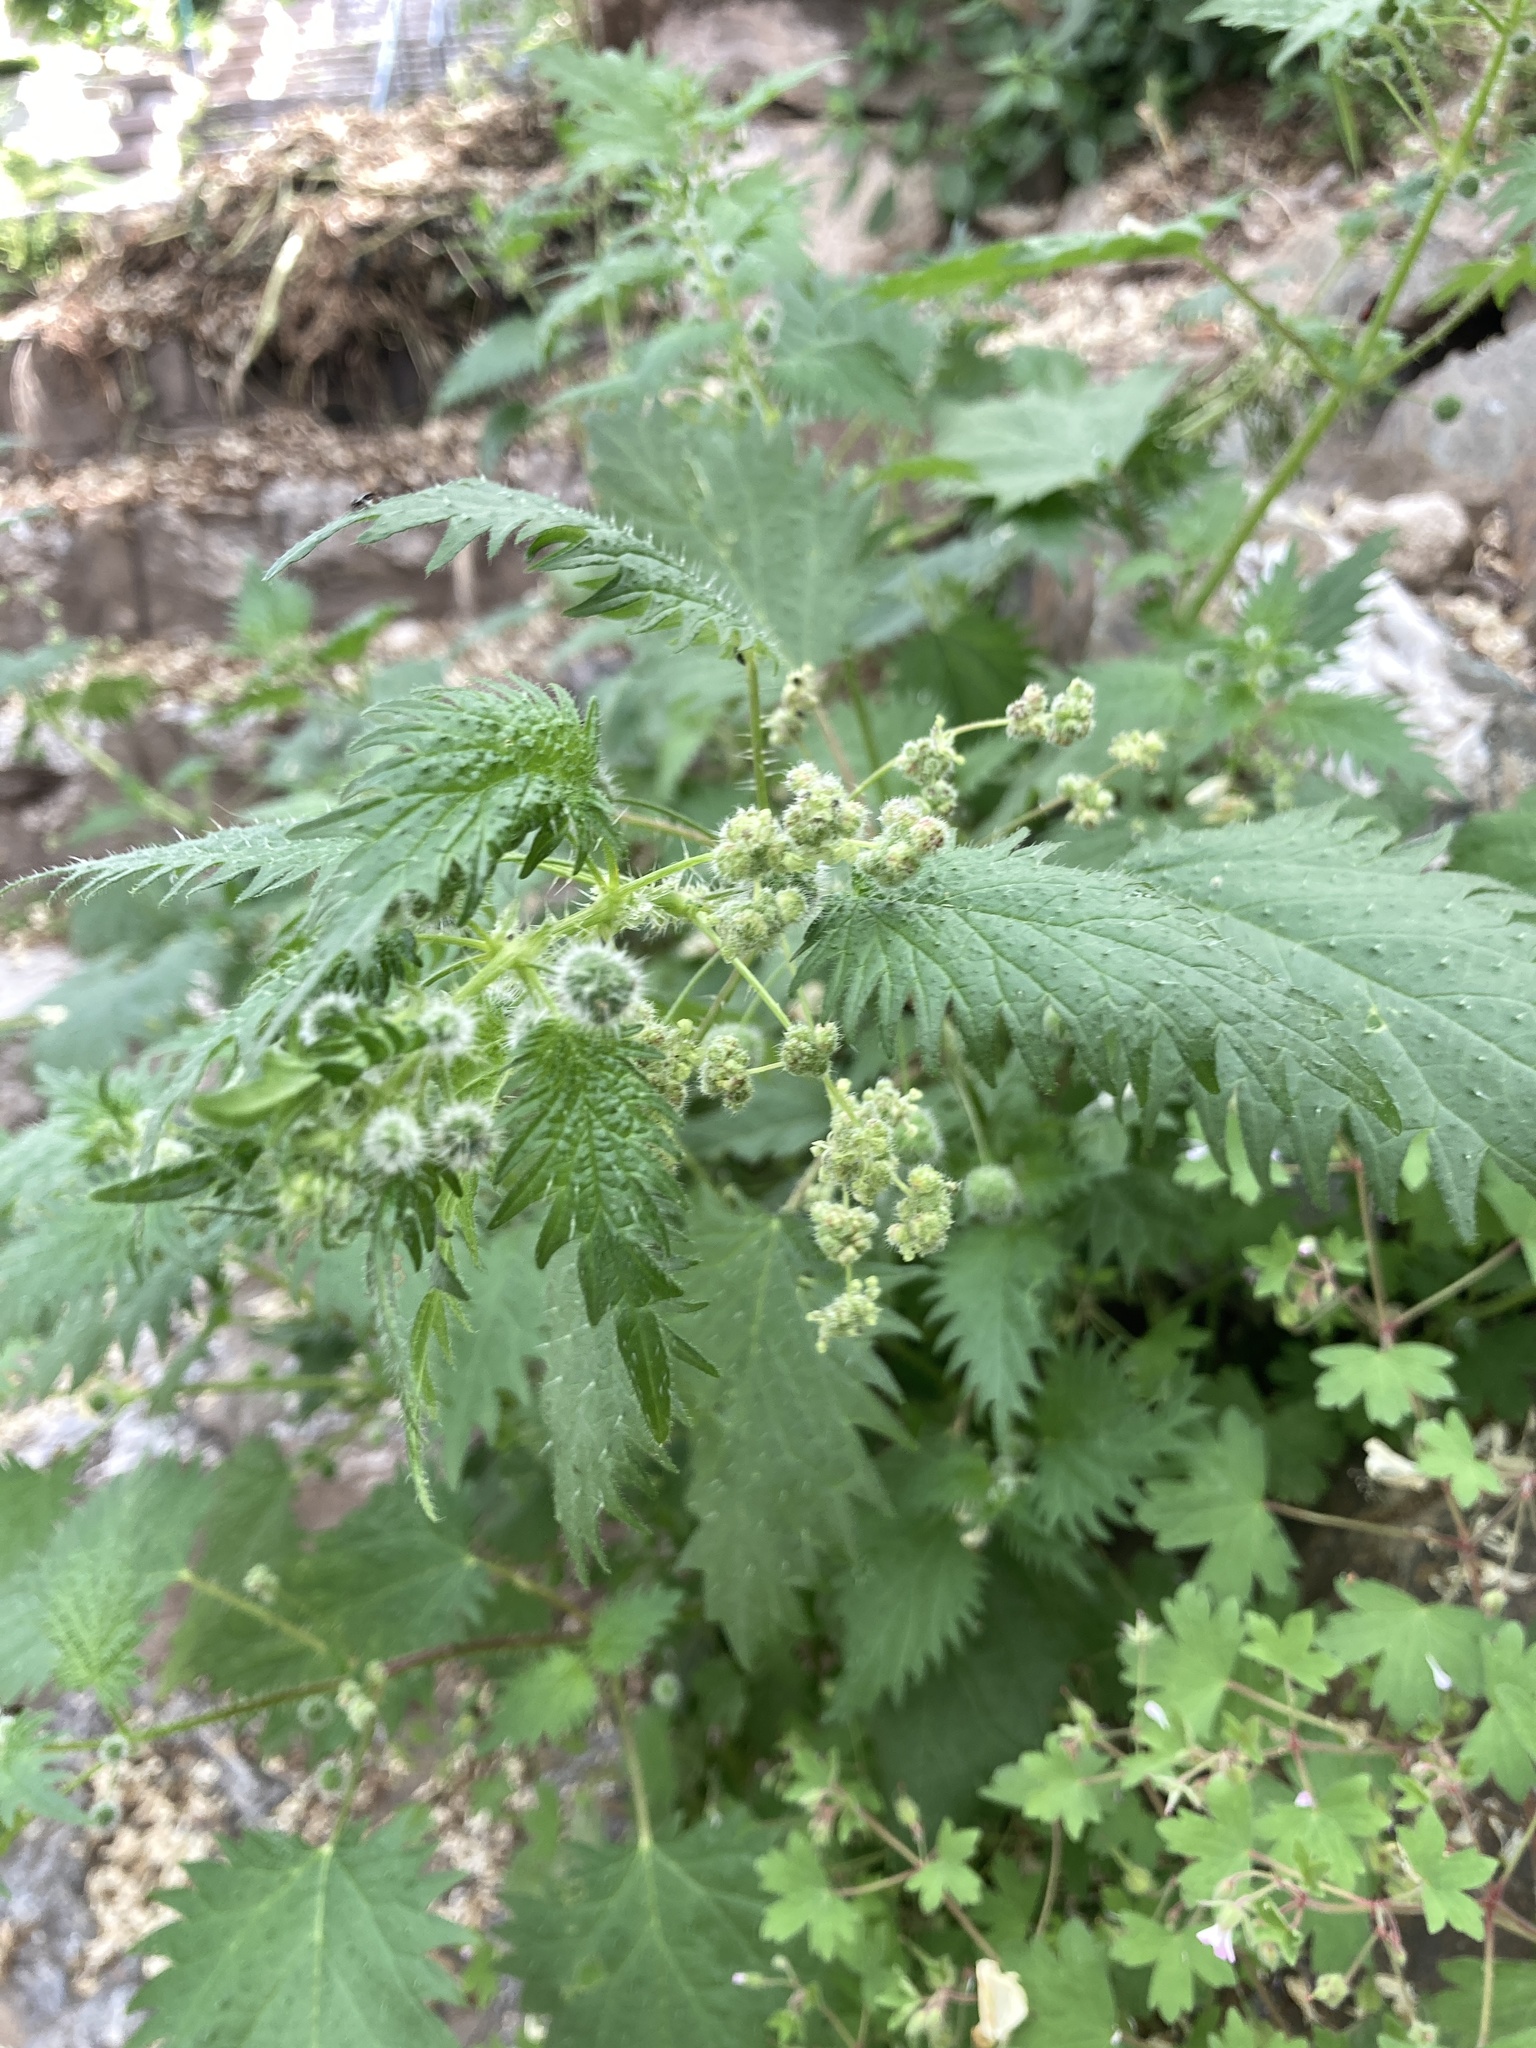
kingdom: Plantae
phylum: Tracheophyta
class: Magnoliopsida
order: Rosales
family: Urticaceae
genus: Urtica
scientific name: Urtica pilulifera
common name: Roman nettle
